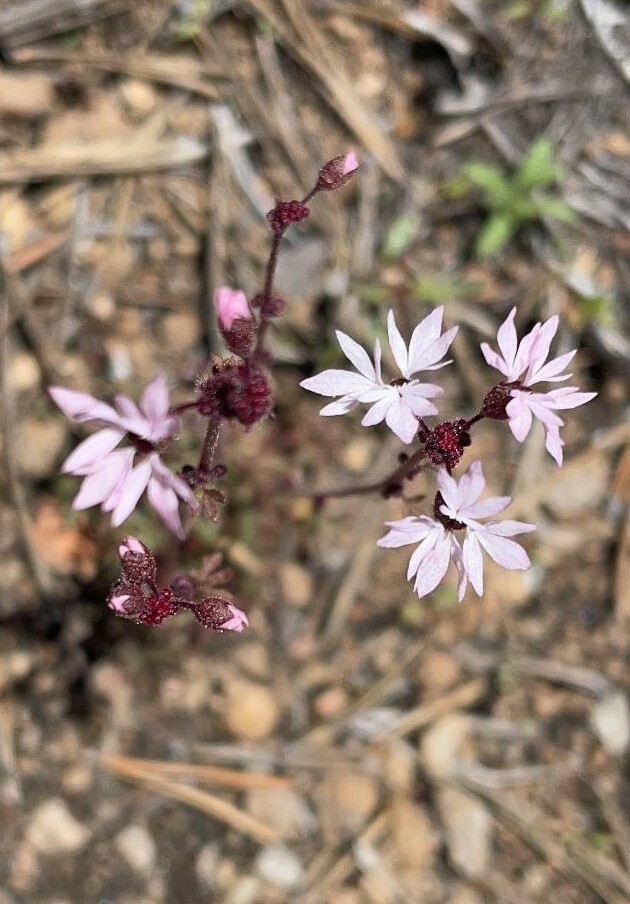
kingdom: Plantae
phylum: Tracheophyta
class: Magnoliopsida
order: Saxifragales
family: Saxifragaceae
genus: Lithophragma
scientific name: Lithophragma glabrum
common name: Bulbous prairie-star
